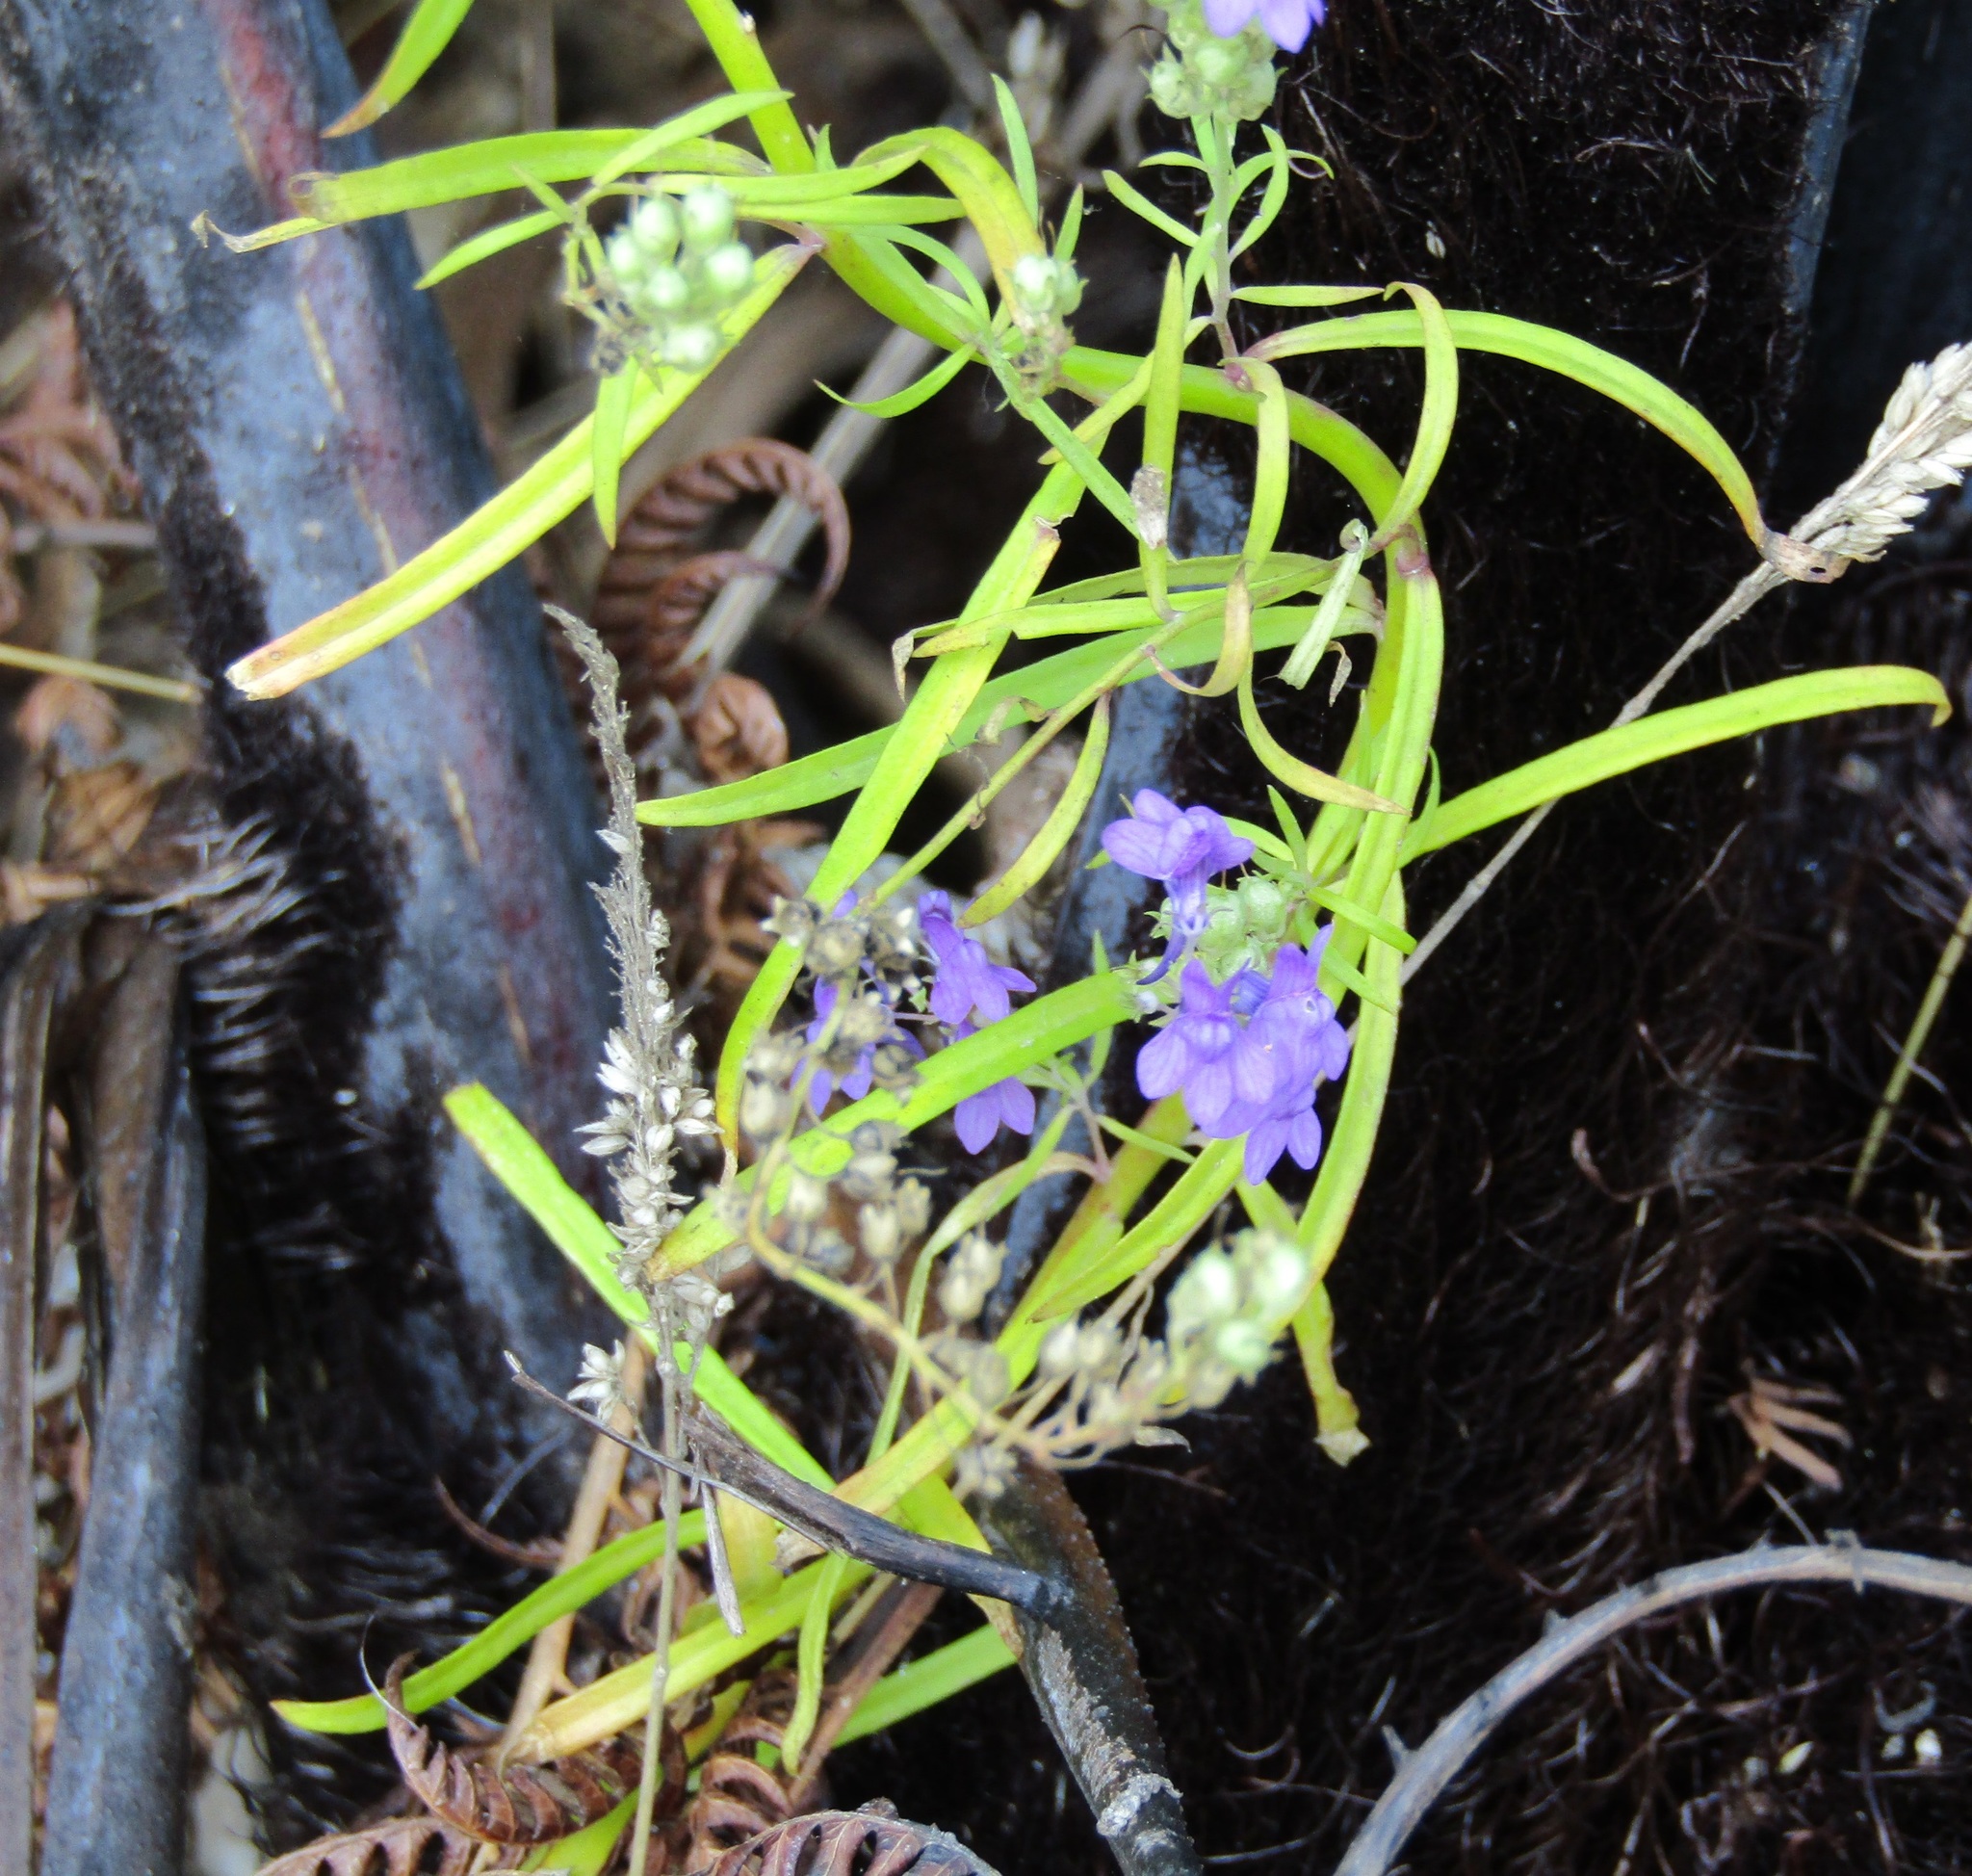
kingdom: Plantae
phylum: Tracheophyta
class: Magnoliopsida
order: Lamiales
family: Plantaginaceae
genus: Linaria
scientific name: Linaria purpurea
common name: Purple toadflax
